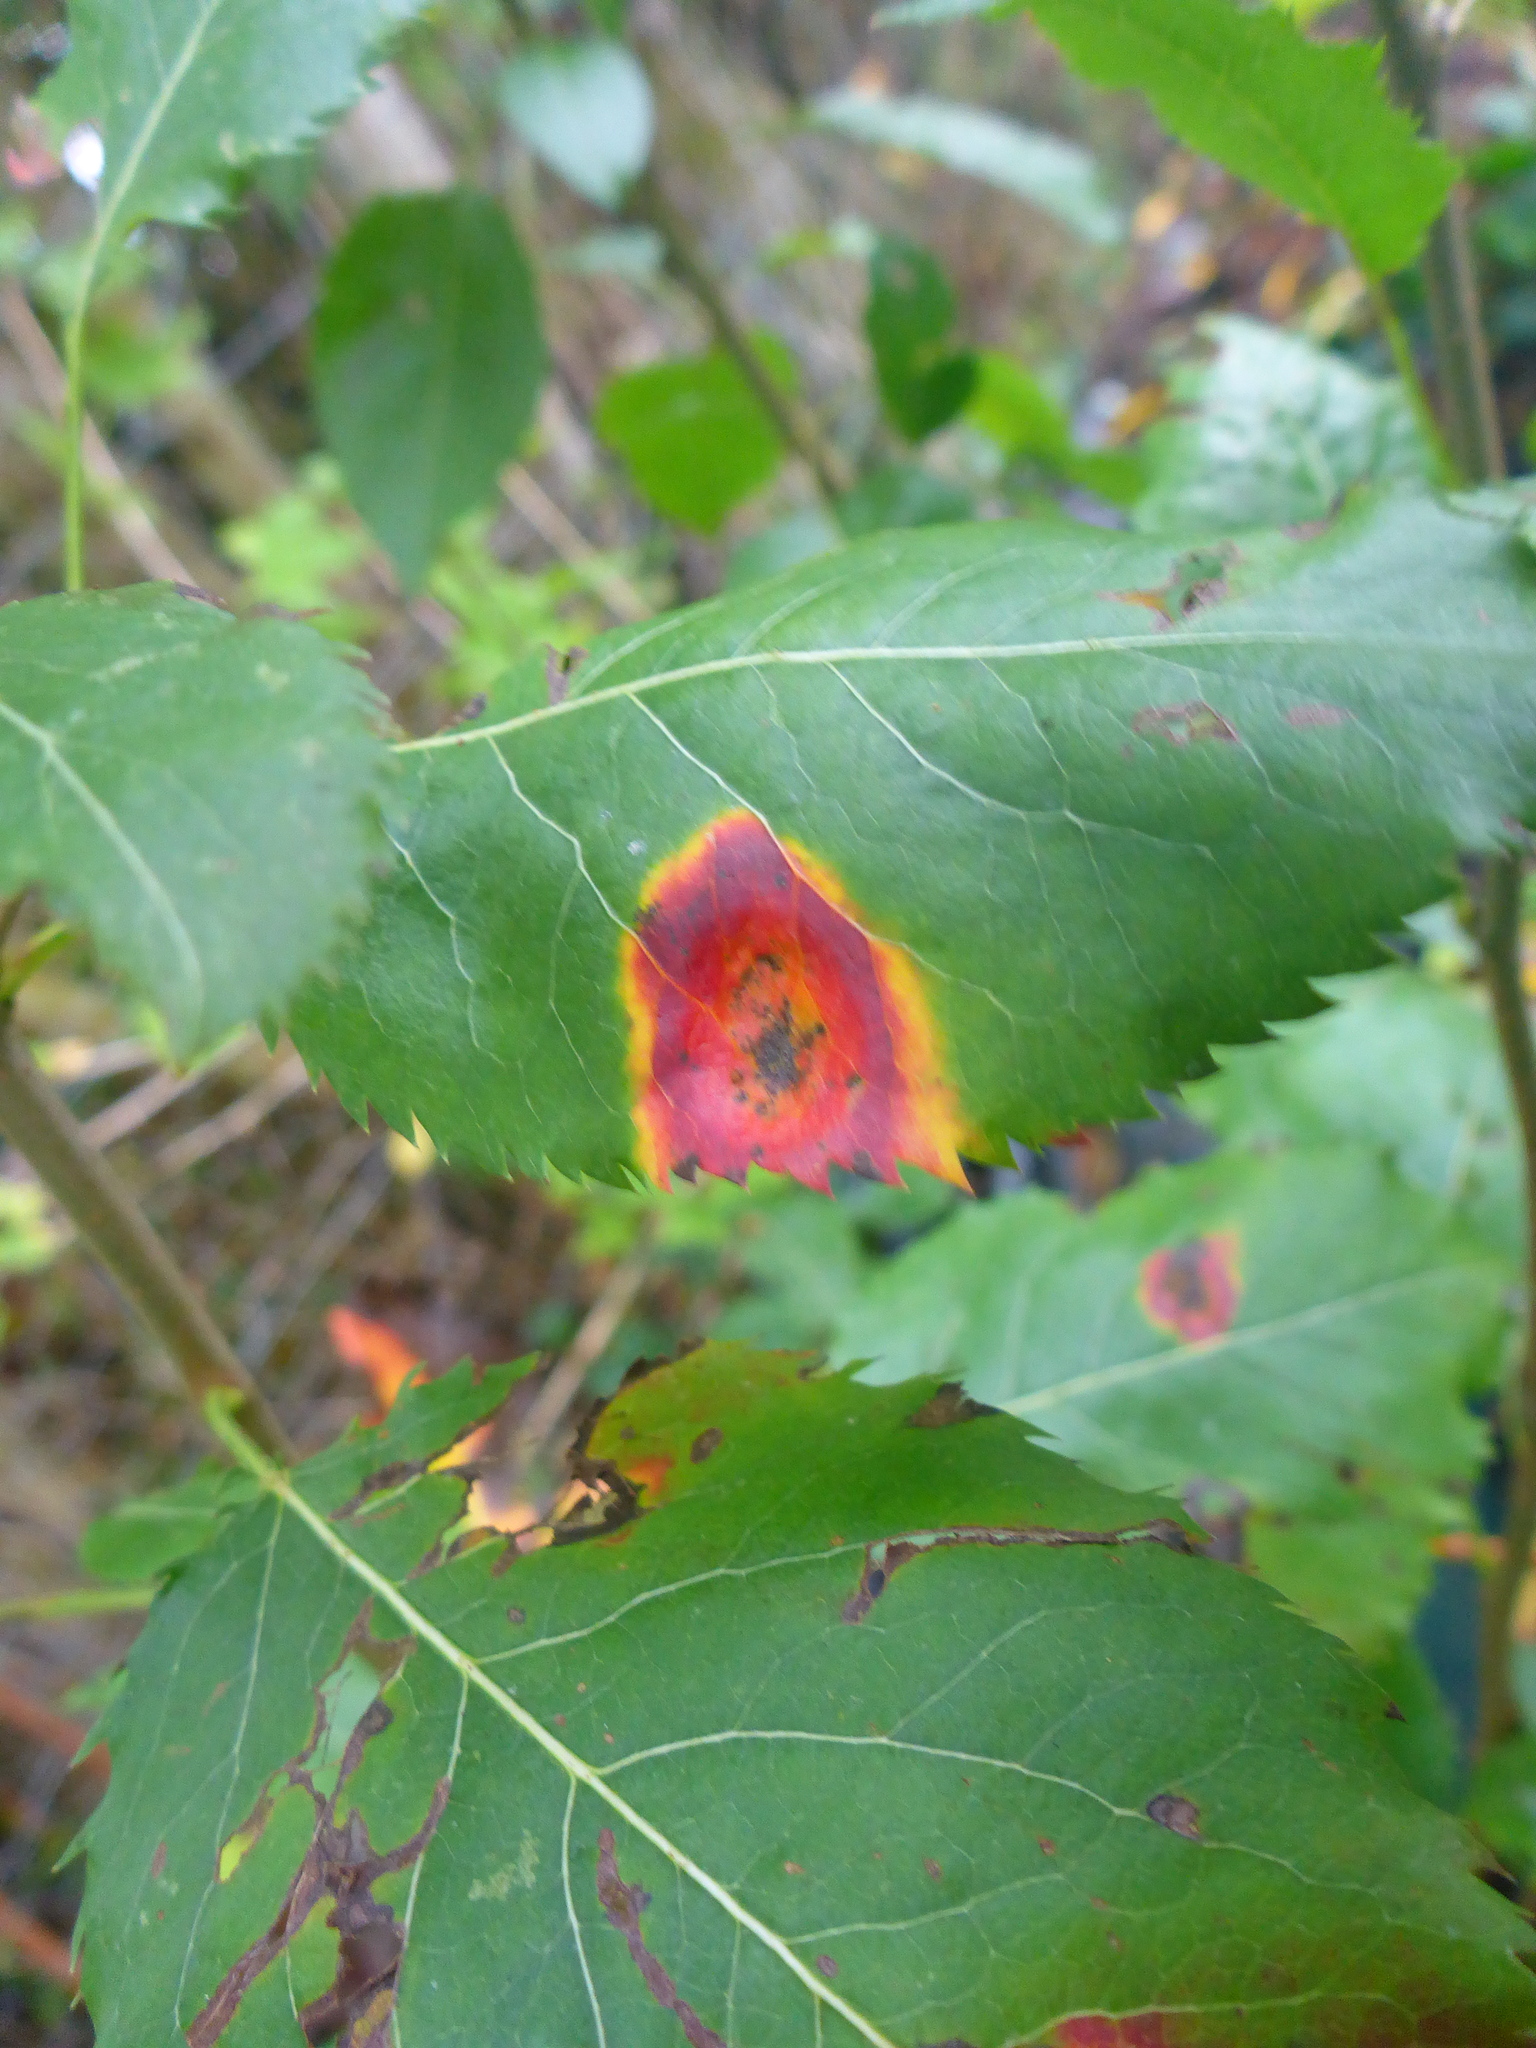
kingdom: Fungi
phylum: Basidiomycota
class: Pucciniomycetes
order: Pucciniales
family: Gymnosporangiaceae
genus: Gymnosporangium
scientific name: Gymnosporangium sabinae
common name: Pear trellis rust fungus
